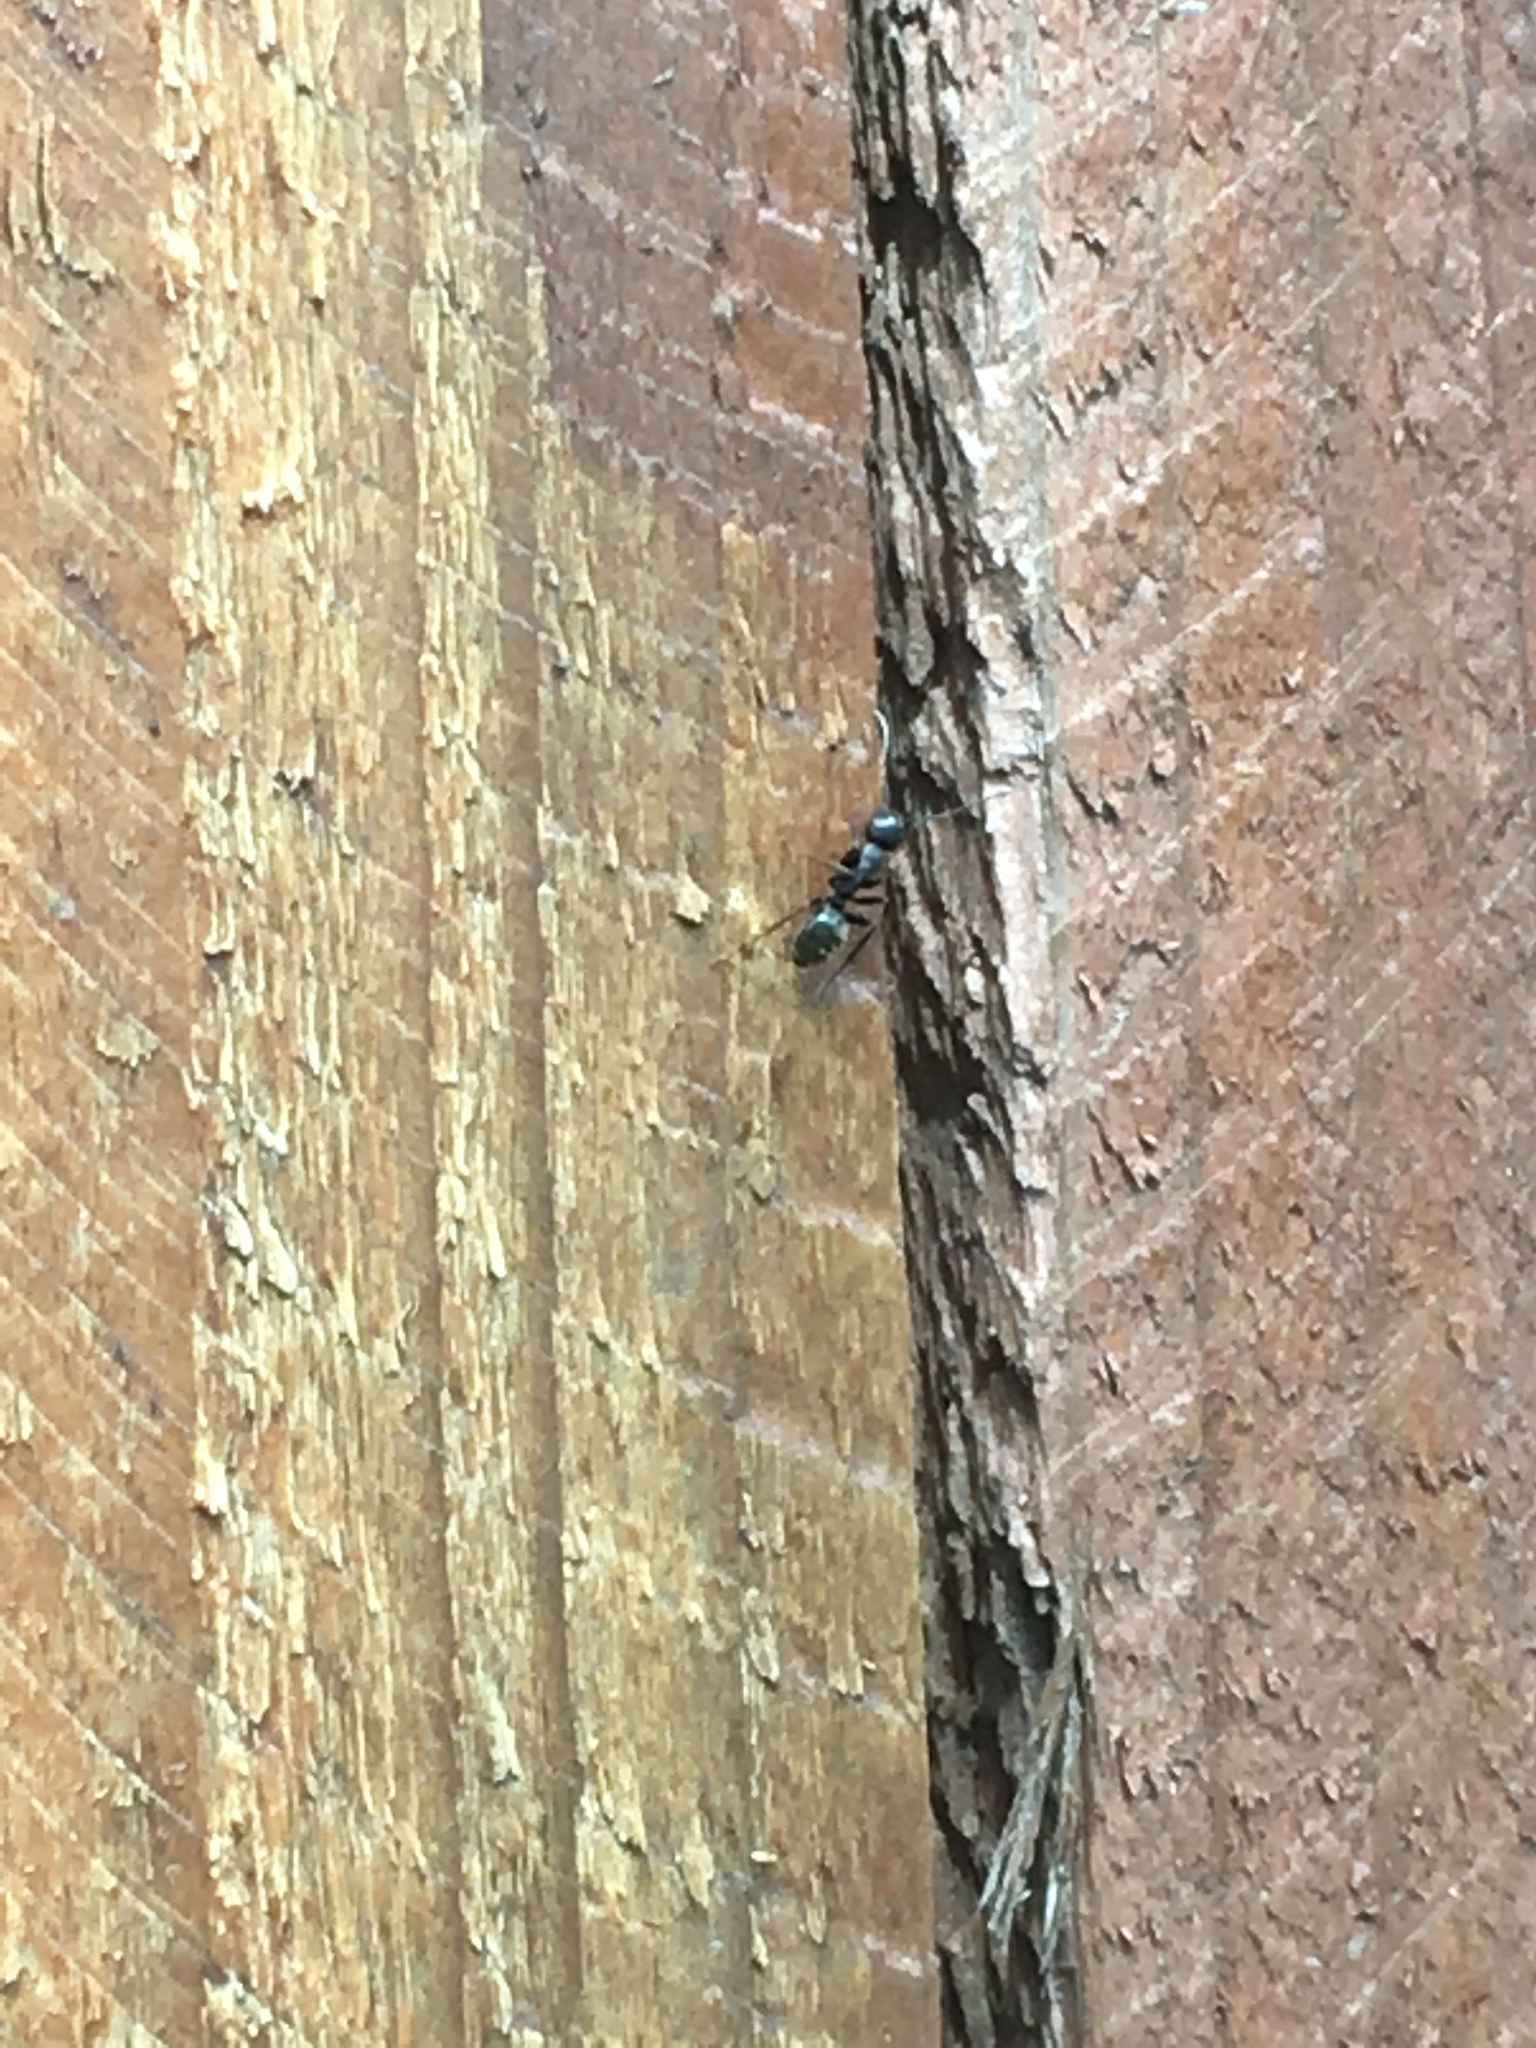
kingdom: Animalia
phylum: Arthropoda
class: Insecta
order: Hymenoptera
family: Formicidae
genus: Camponotus
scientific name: Camponotus pennsylvanicus
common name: Black carpenter ant
